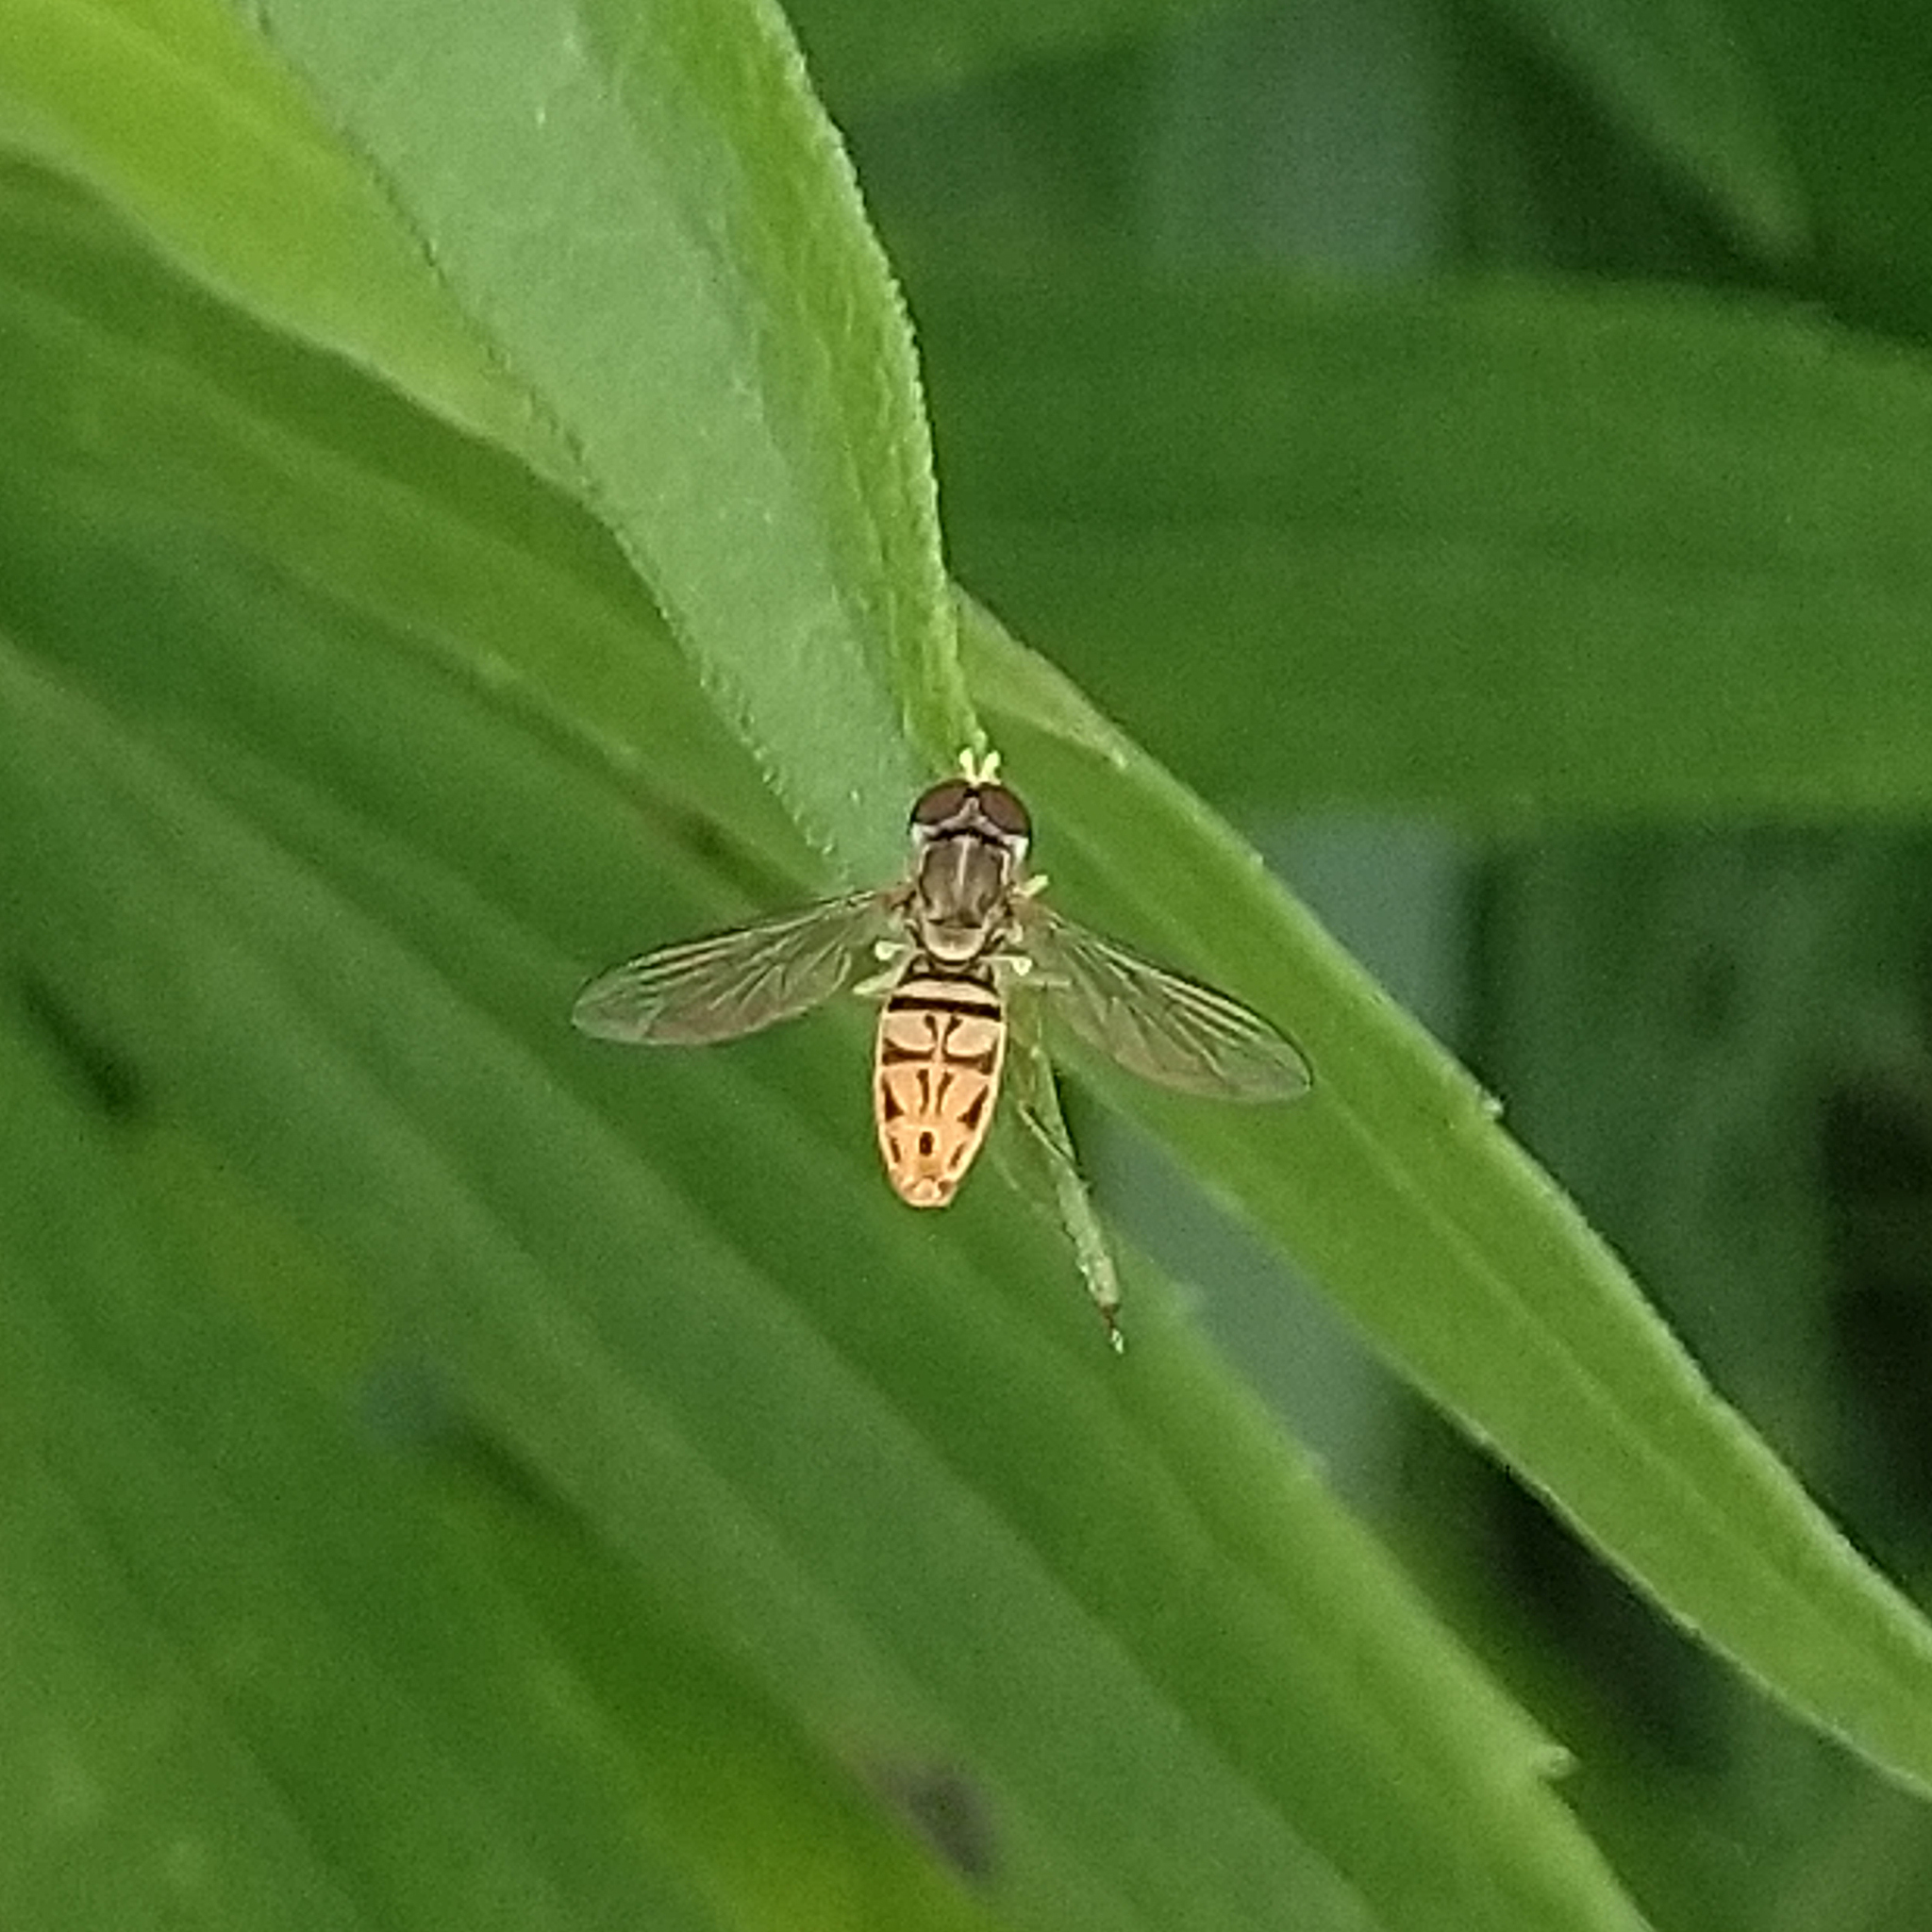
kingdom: Animalia
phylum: Arthropoda
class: Insecta
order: Diptera
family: Syrphidae
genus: Toxomerus
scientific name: Toxomerus marginatus
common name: Syrphid fly
